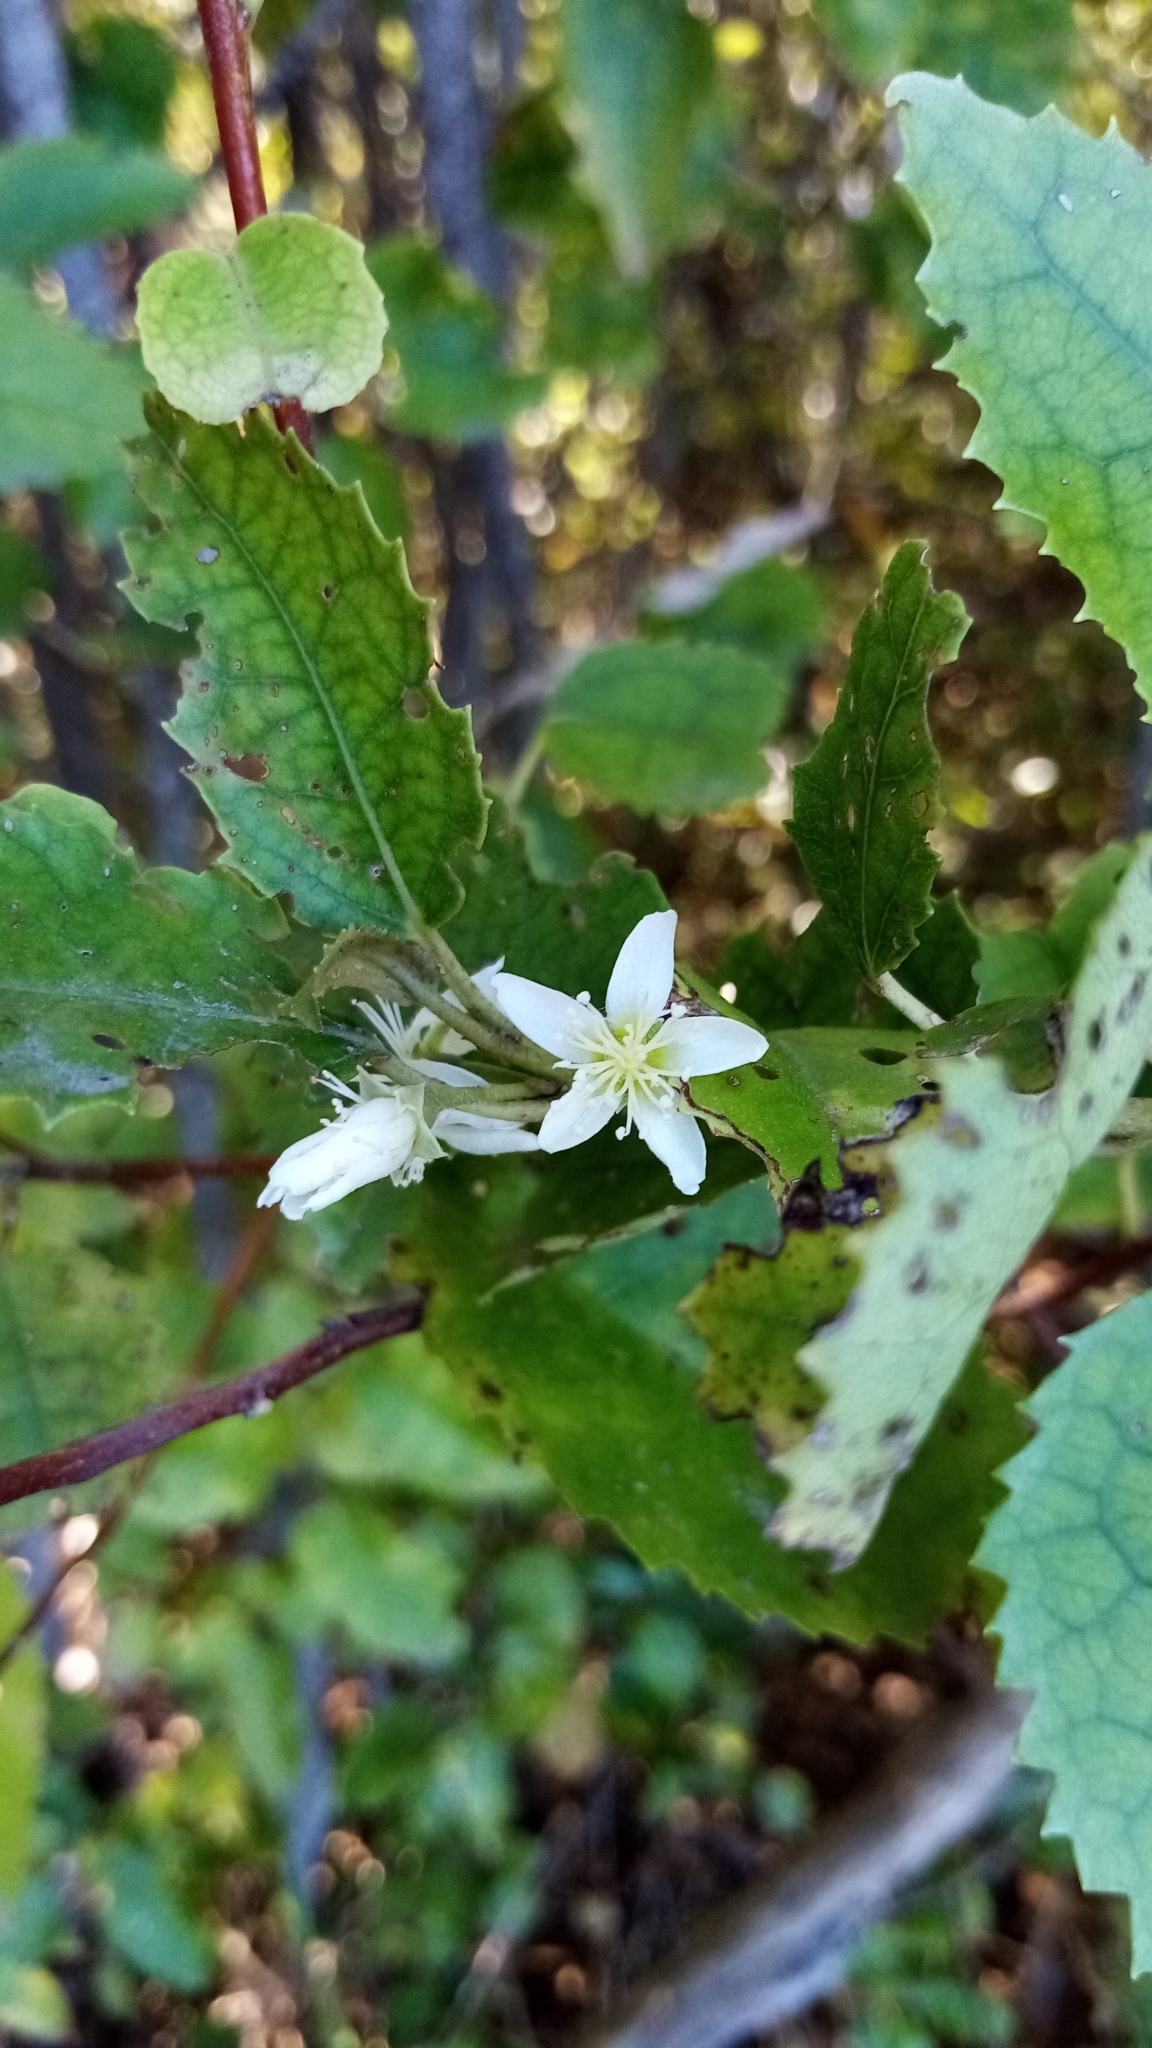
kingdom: Plantae
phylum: Tracheophyta
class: Magnoliopsida
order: Malvales
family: Malvaceae
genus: Hoheria
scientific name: Hoheria populnea
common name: Lacebark
